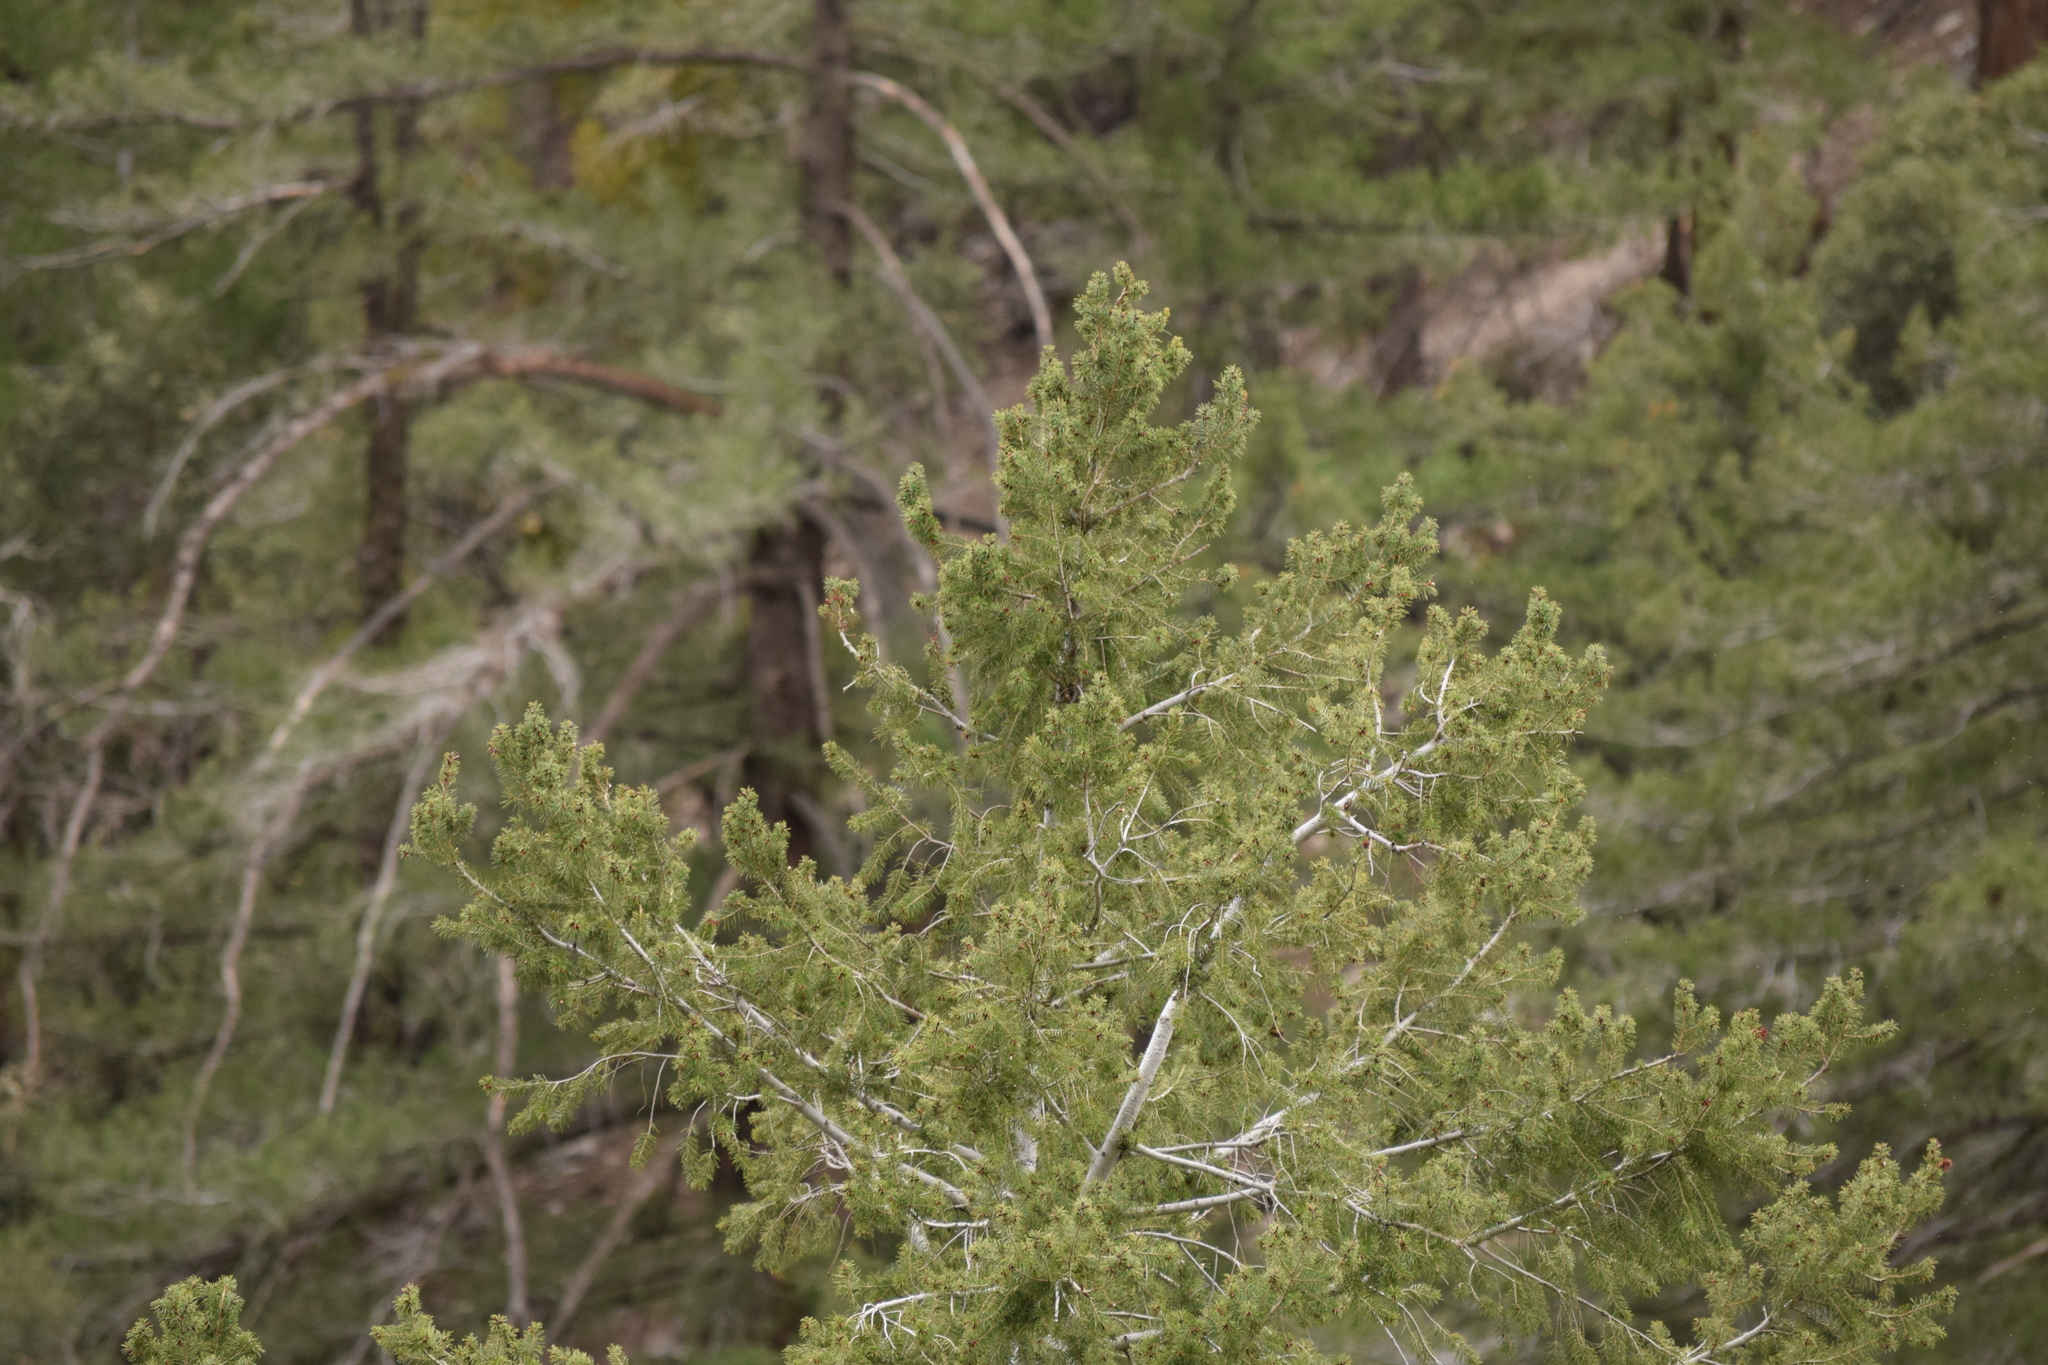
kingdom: Plantae
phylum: Tracheophyta
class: Pinopsida
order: Pinales
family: Pinaceae
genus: Pseudotsuga
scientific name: Pseudotsuga macrocarpa
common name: Big-cone douglas-fir
